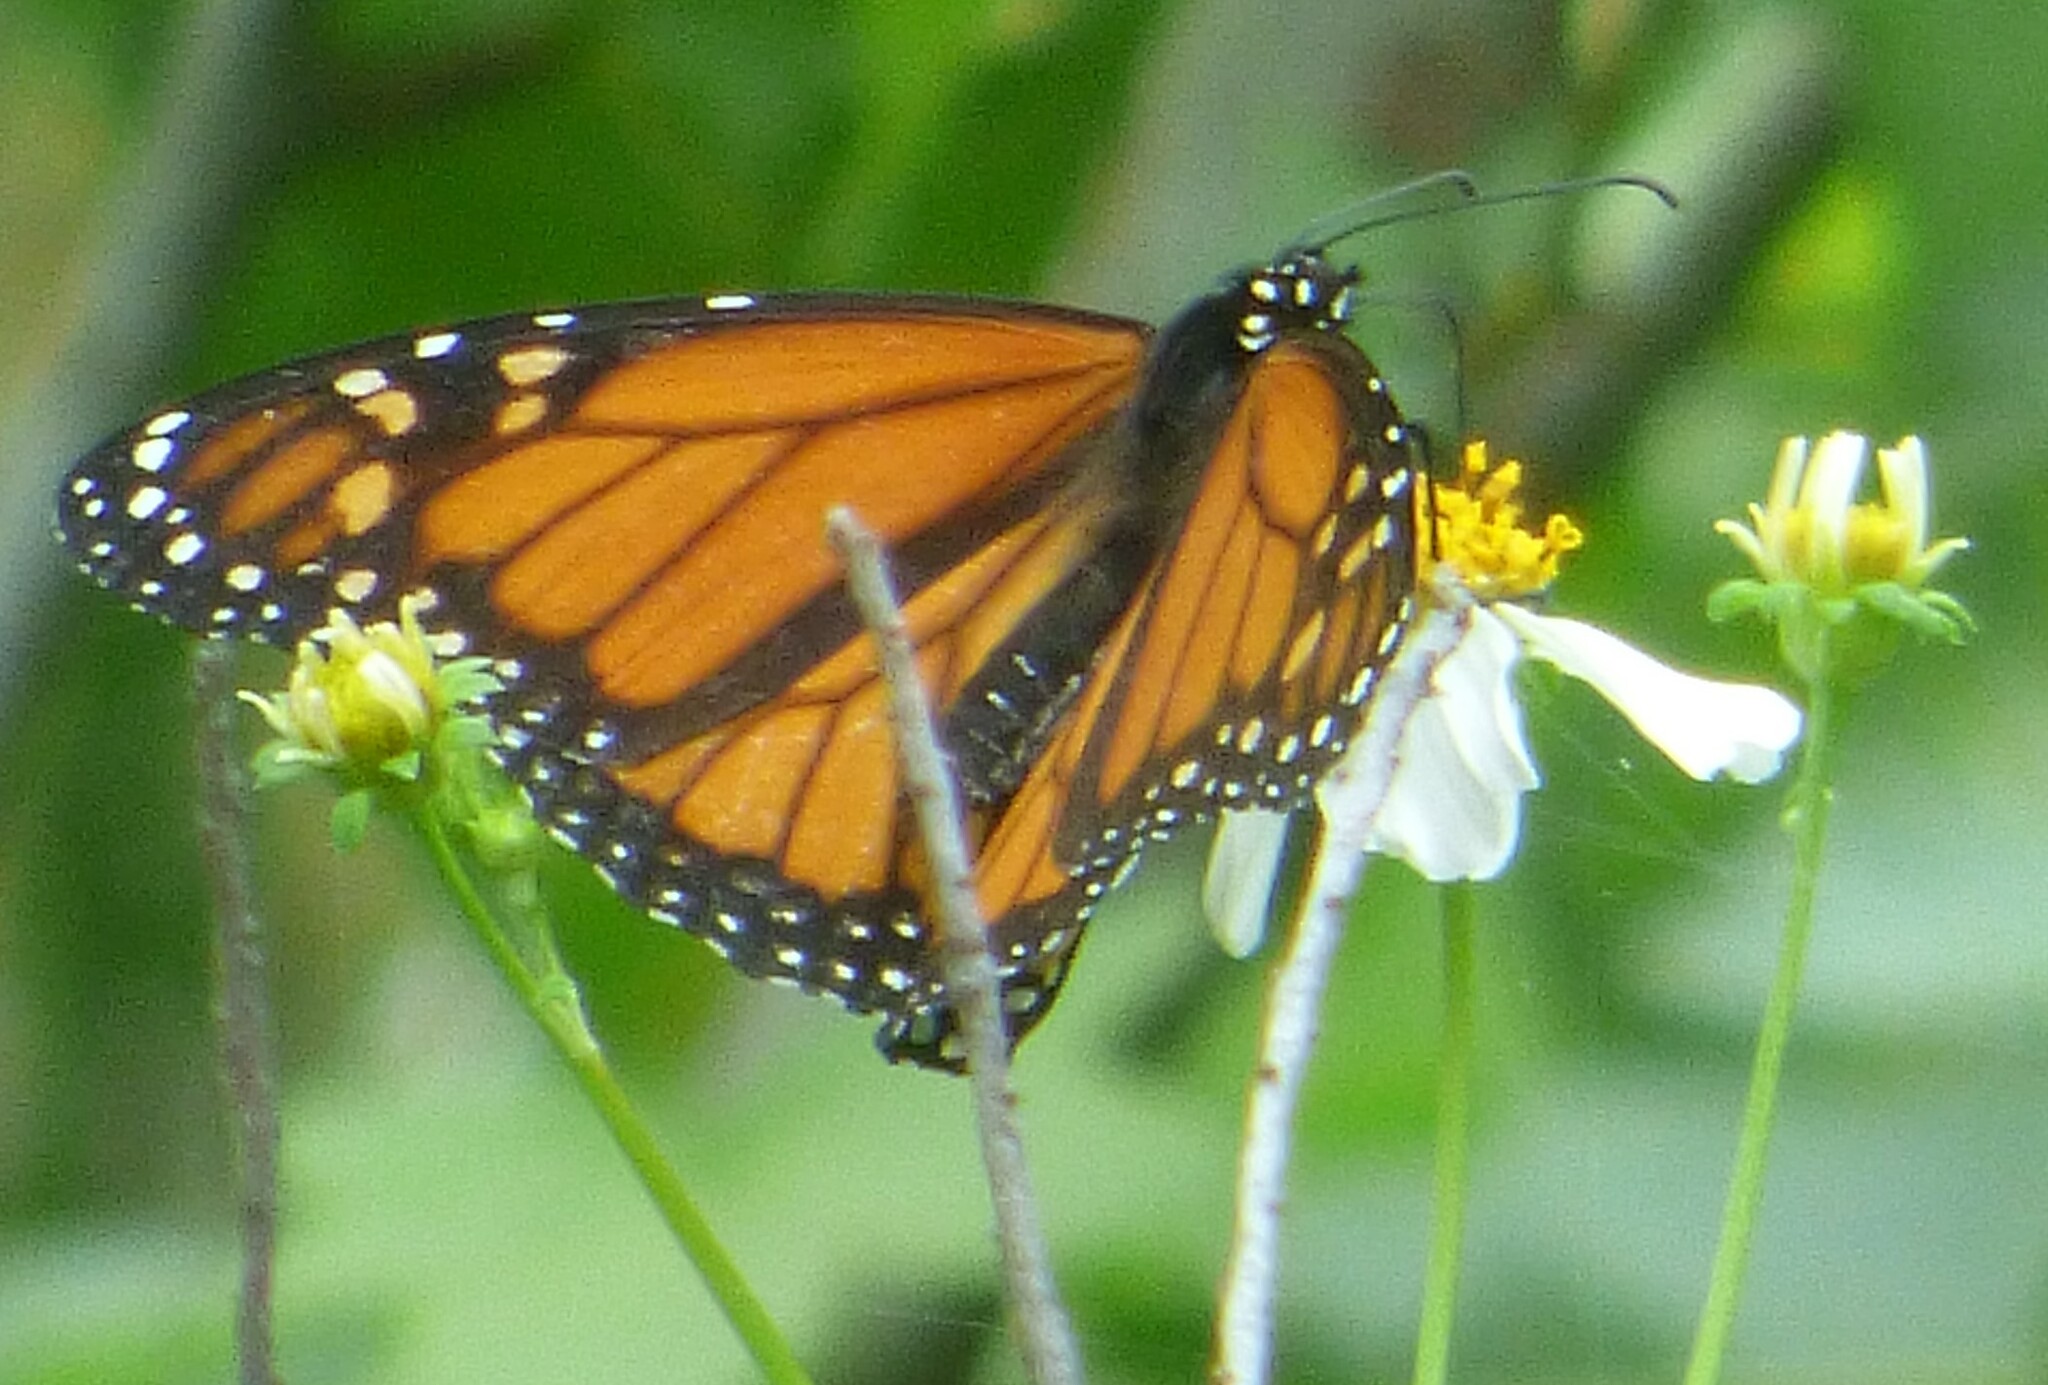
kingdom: Animalia
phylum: Arthropoda
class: Insecta
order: Lepidoptera
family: Nymphalidae
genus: Danaus
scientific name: Danaus plexippus
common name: Monarch
